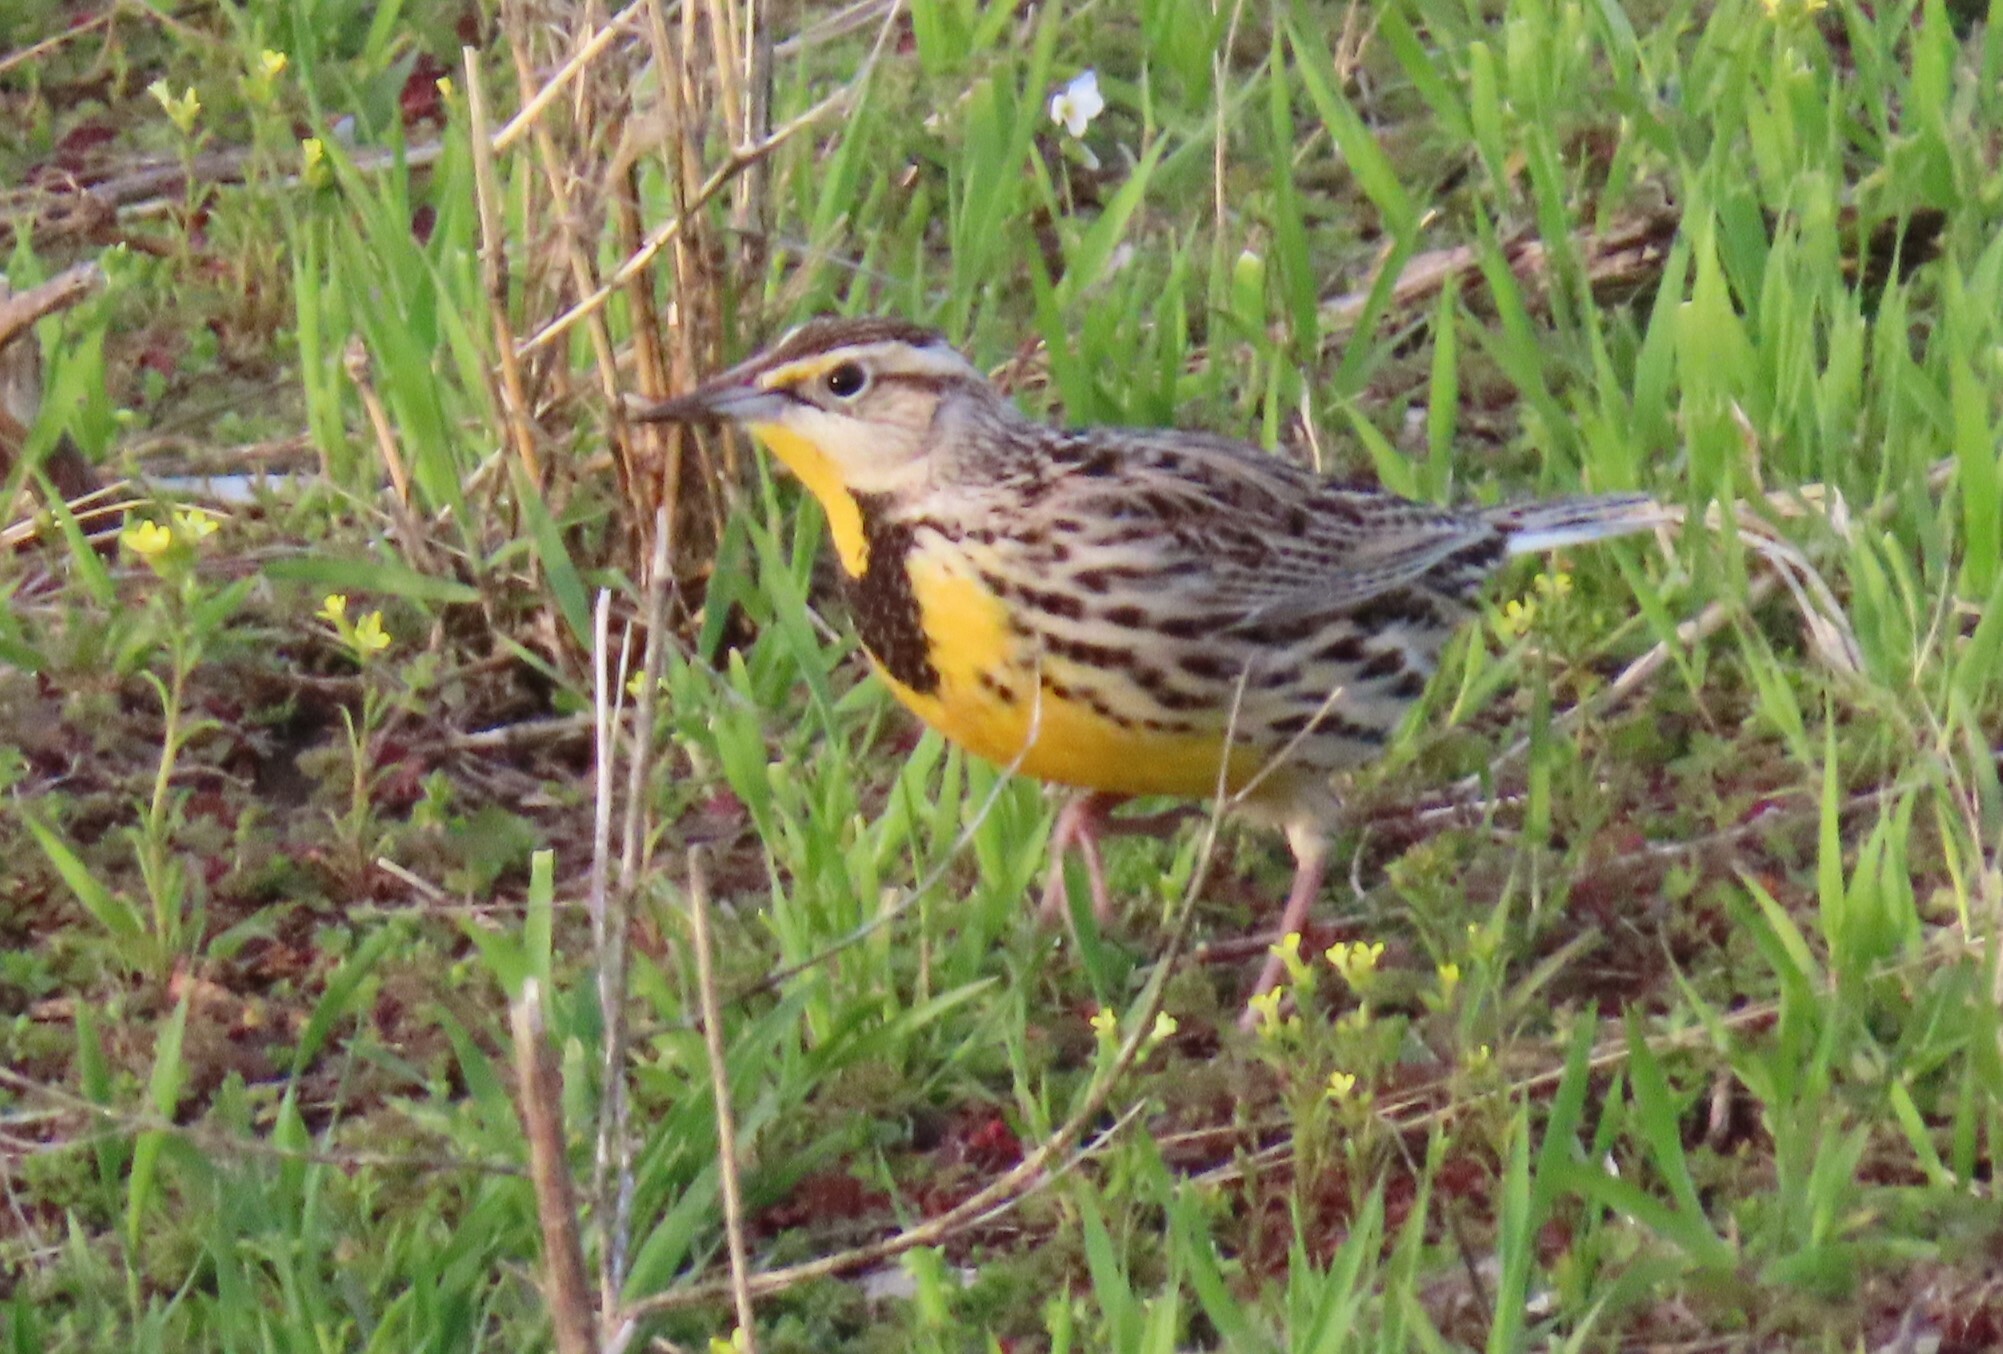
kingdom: Animalia
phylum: Chordata
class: Aves
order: Passeriformes
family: Icteridae
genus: Sturnella
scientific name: Sturnella magna
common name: Eastern meadowlark
